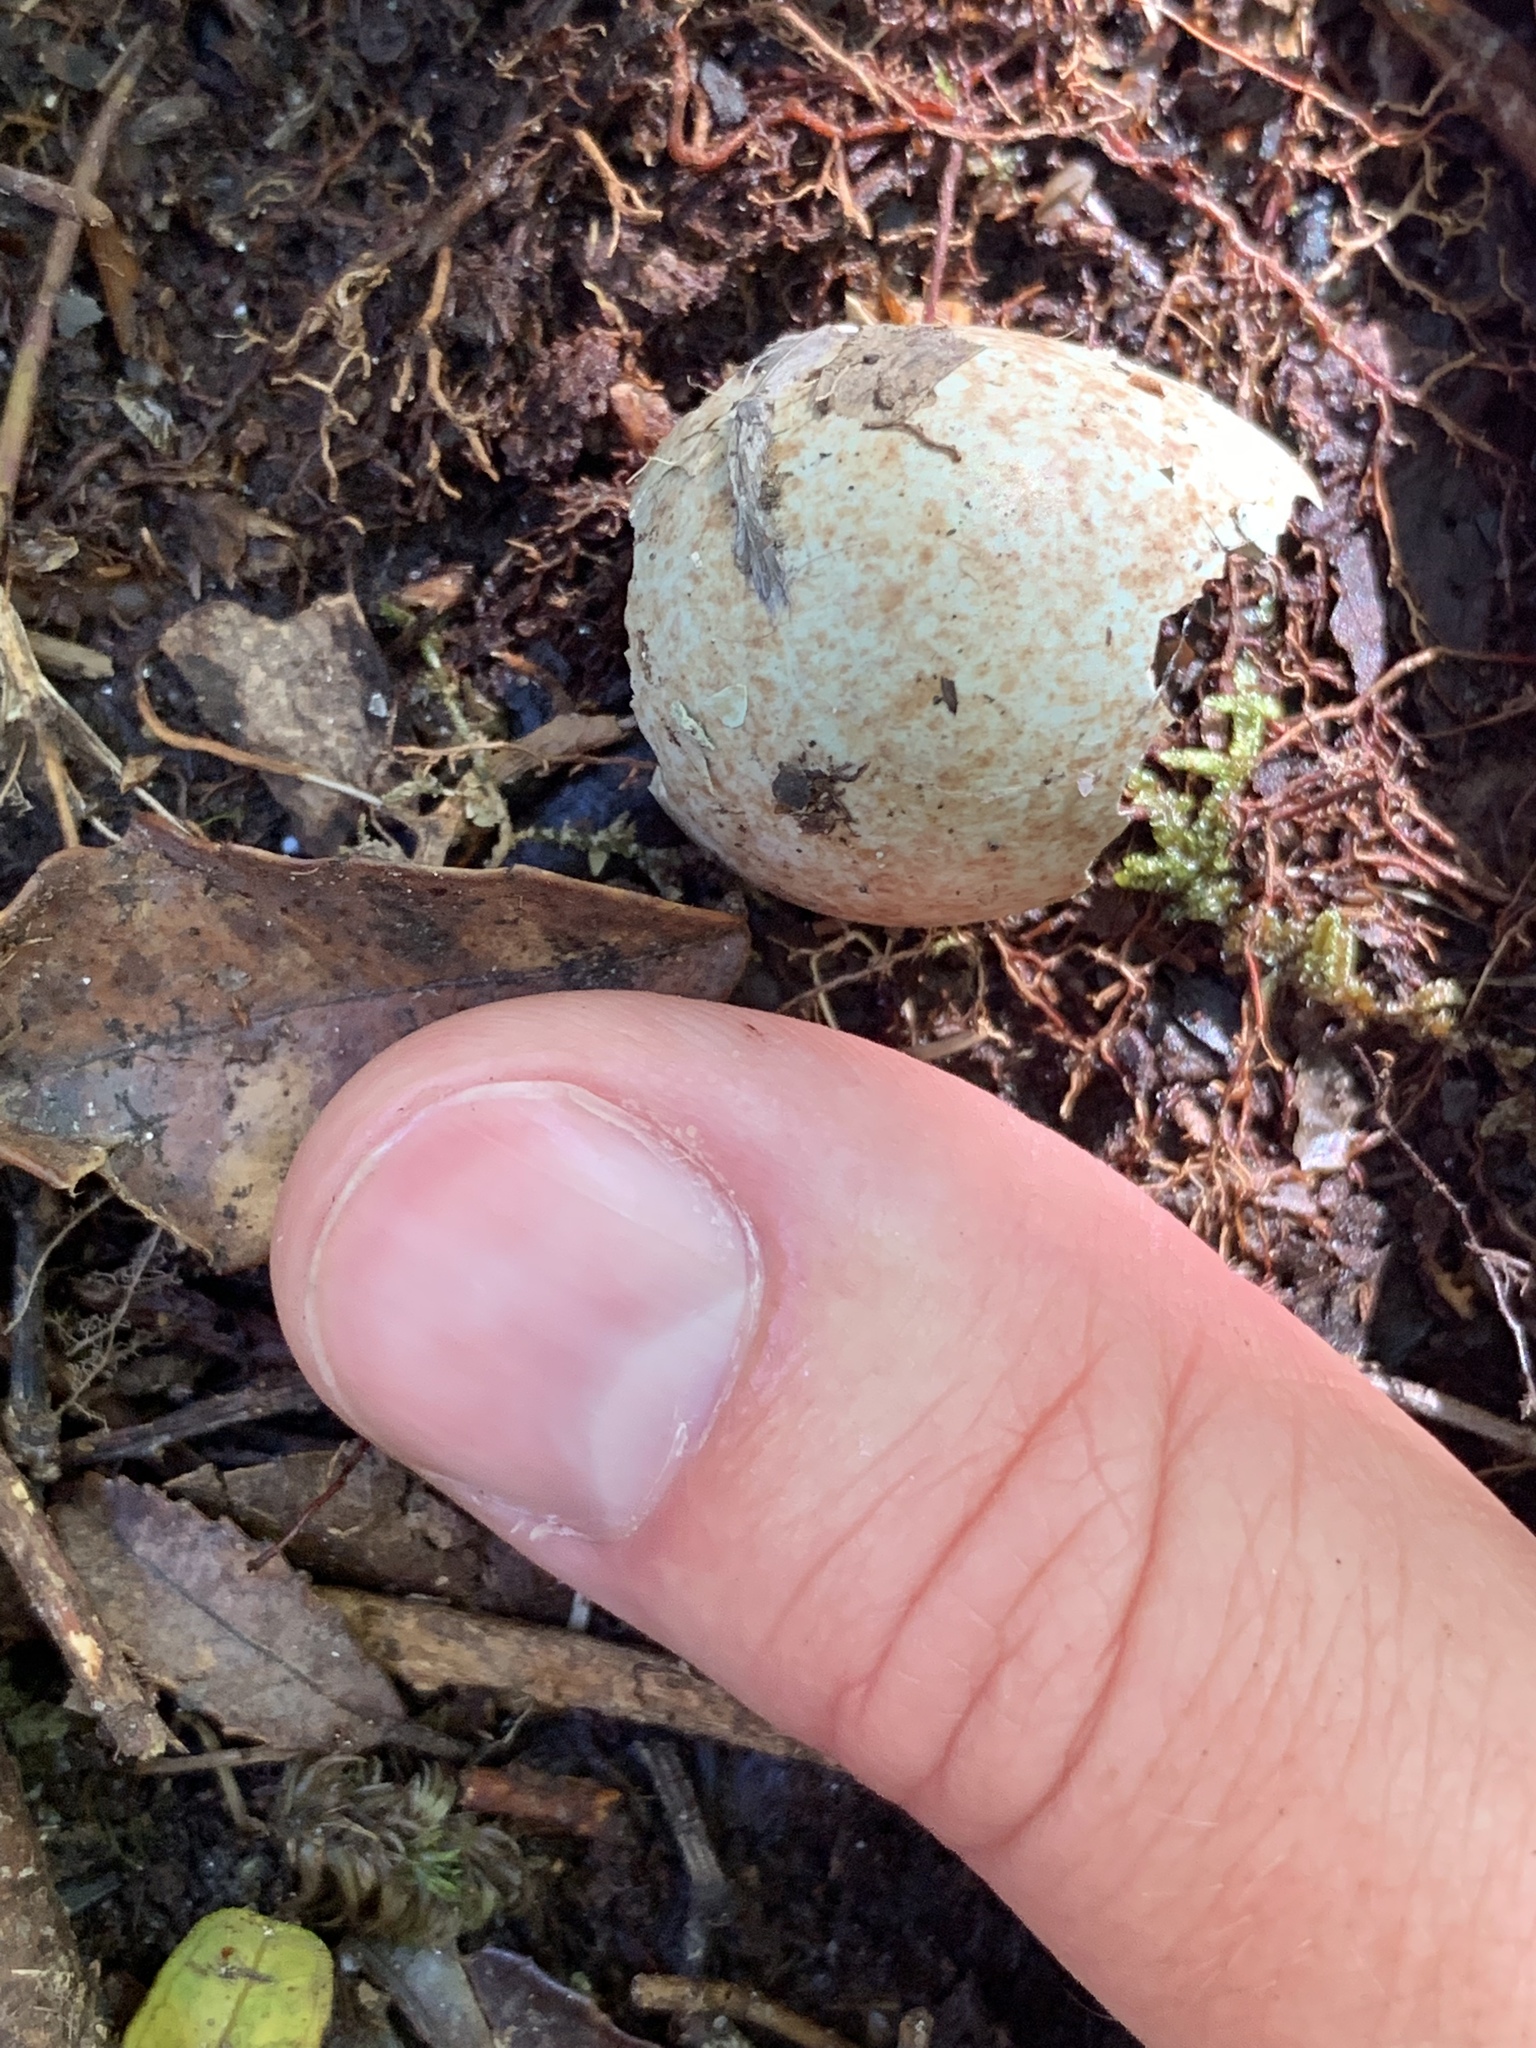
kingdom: Animalia
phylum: Chordata
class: Aves
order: Passeriformes
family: Meliphagidae
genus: Prosthemadera
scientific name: Prosthemadera novaeseelandiae
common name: Tui
